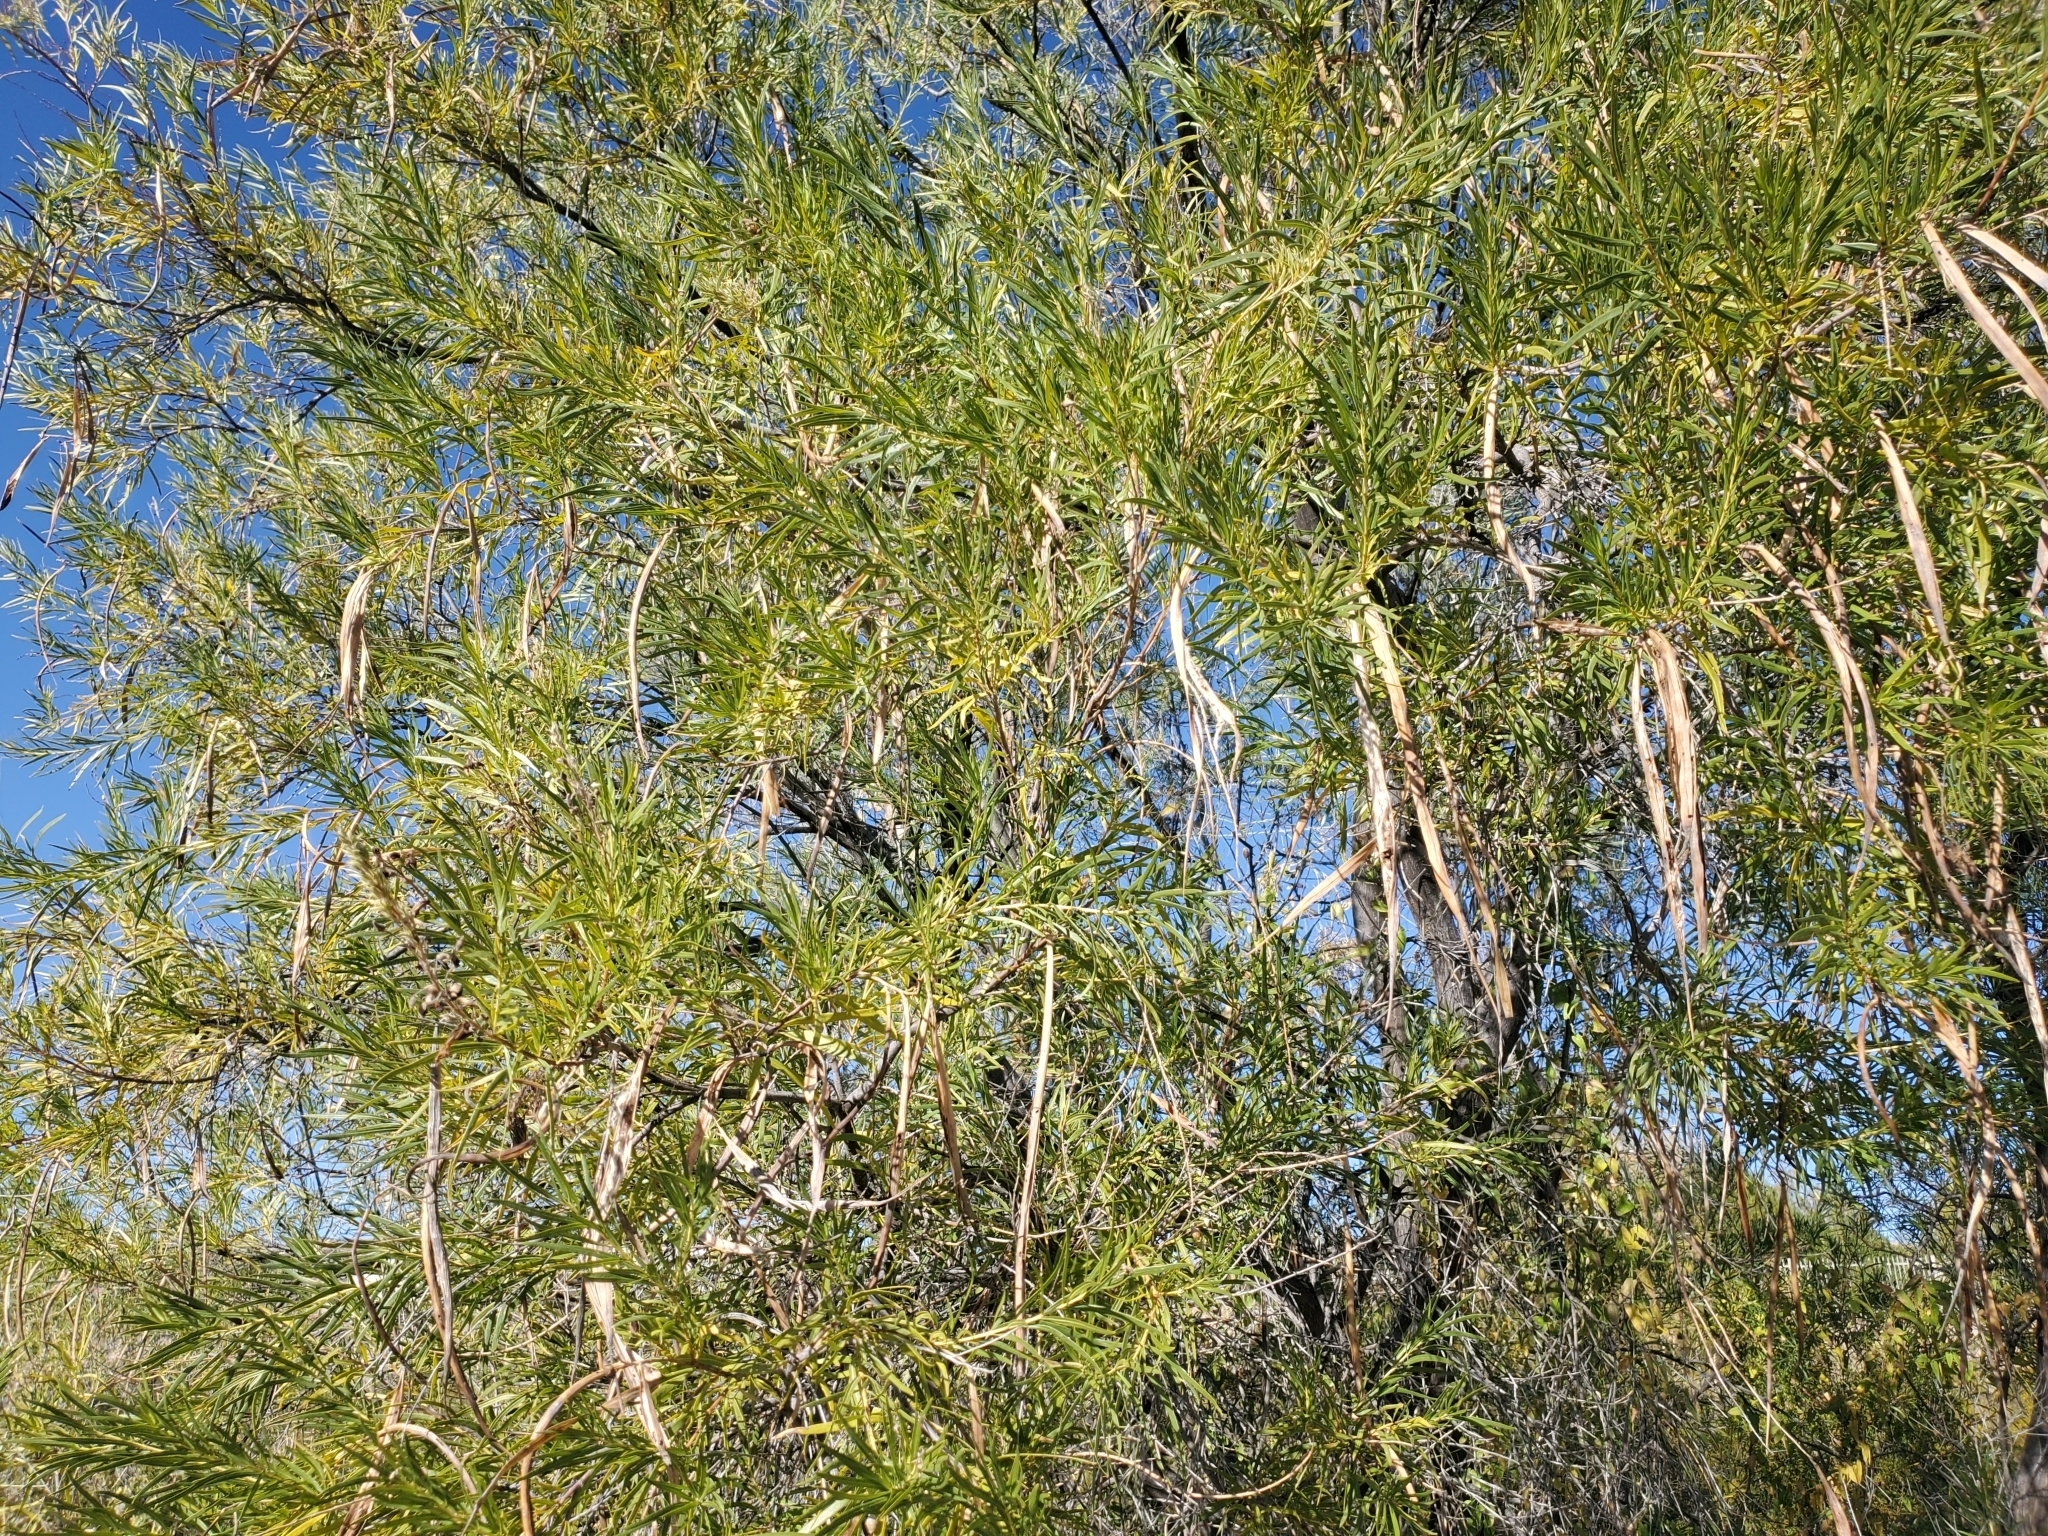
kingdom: Plantae
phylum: Tracheophyta
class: Magnoliopsida
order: Lamiales
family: Bignoniaceae
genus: Chilopsis
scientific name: Chilopsis linearis
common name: Desert-willow
